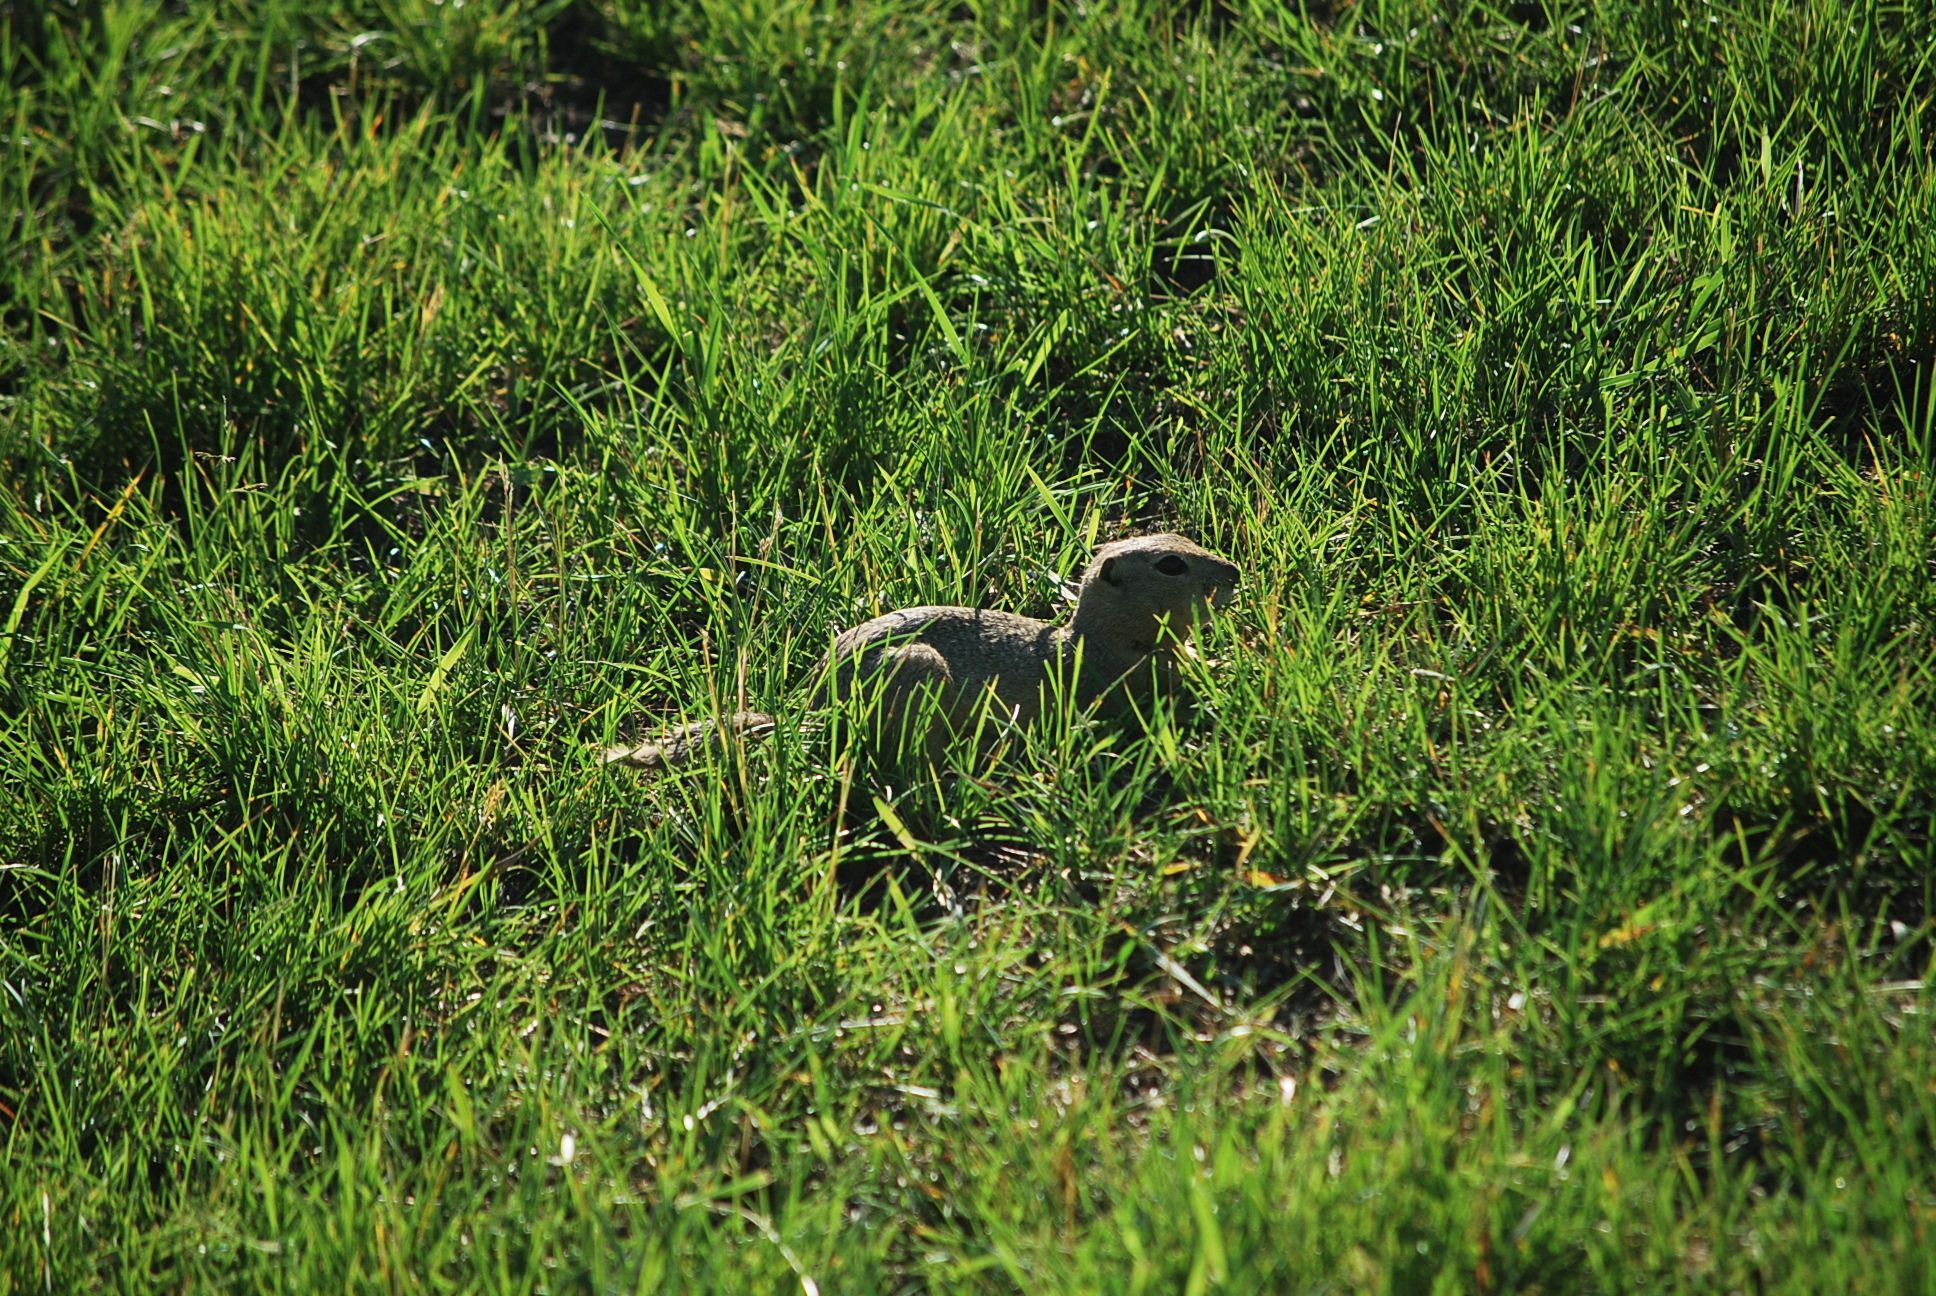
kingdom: Animalia
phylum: Chordata
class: Mammalia
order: Rodentia
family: Sciuridae
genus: Urocitellus
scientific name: Urocitellus richardsonii
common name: Richardson's ground squirrel
